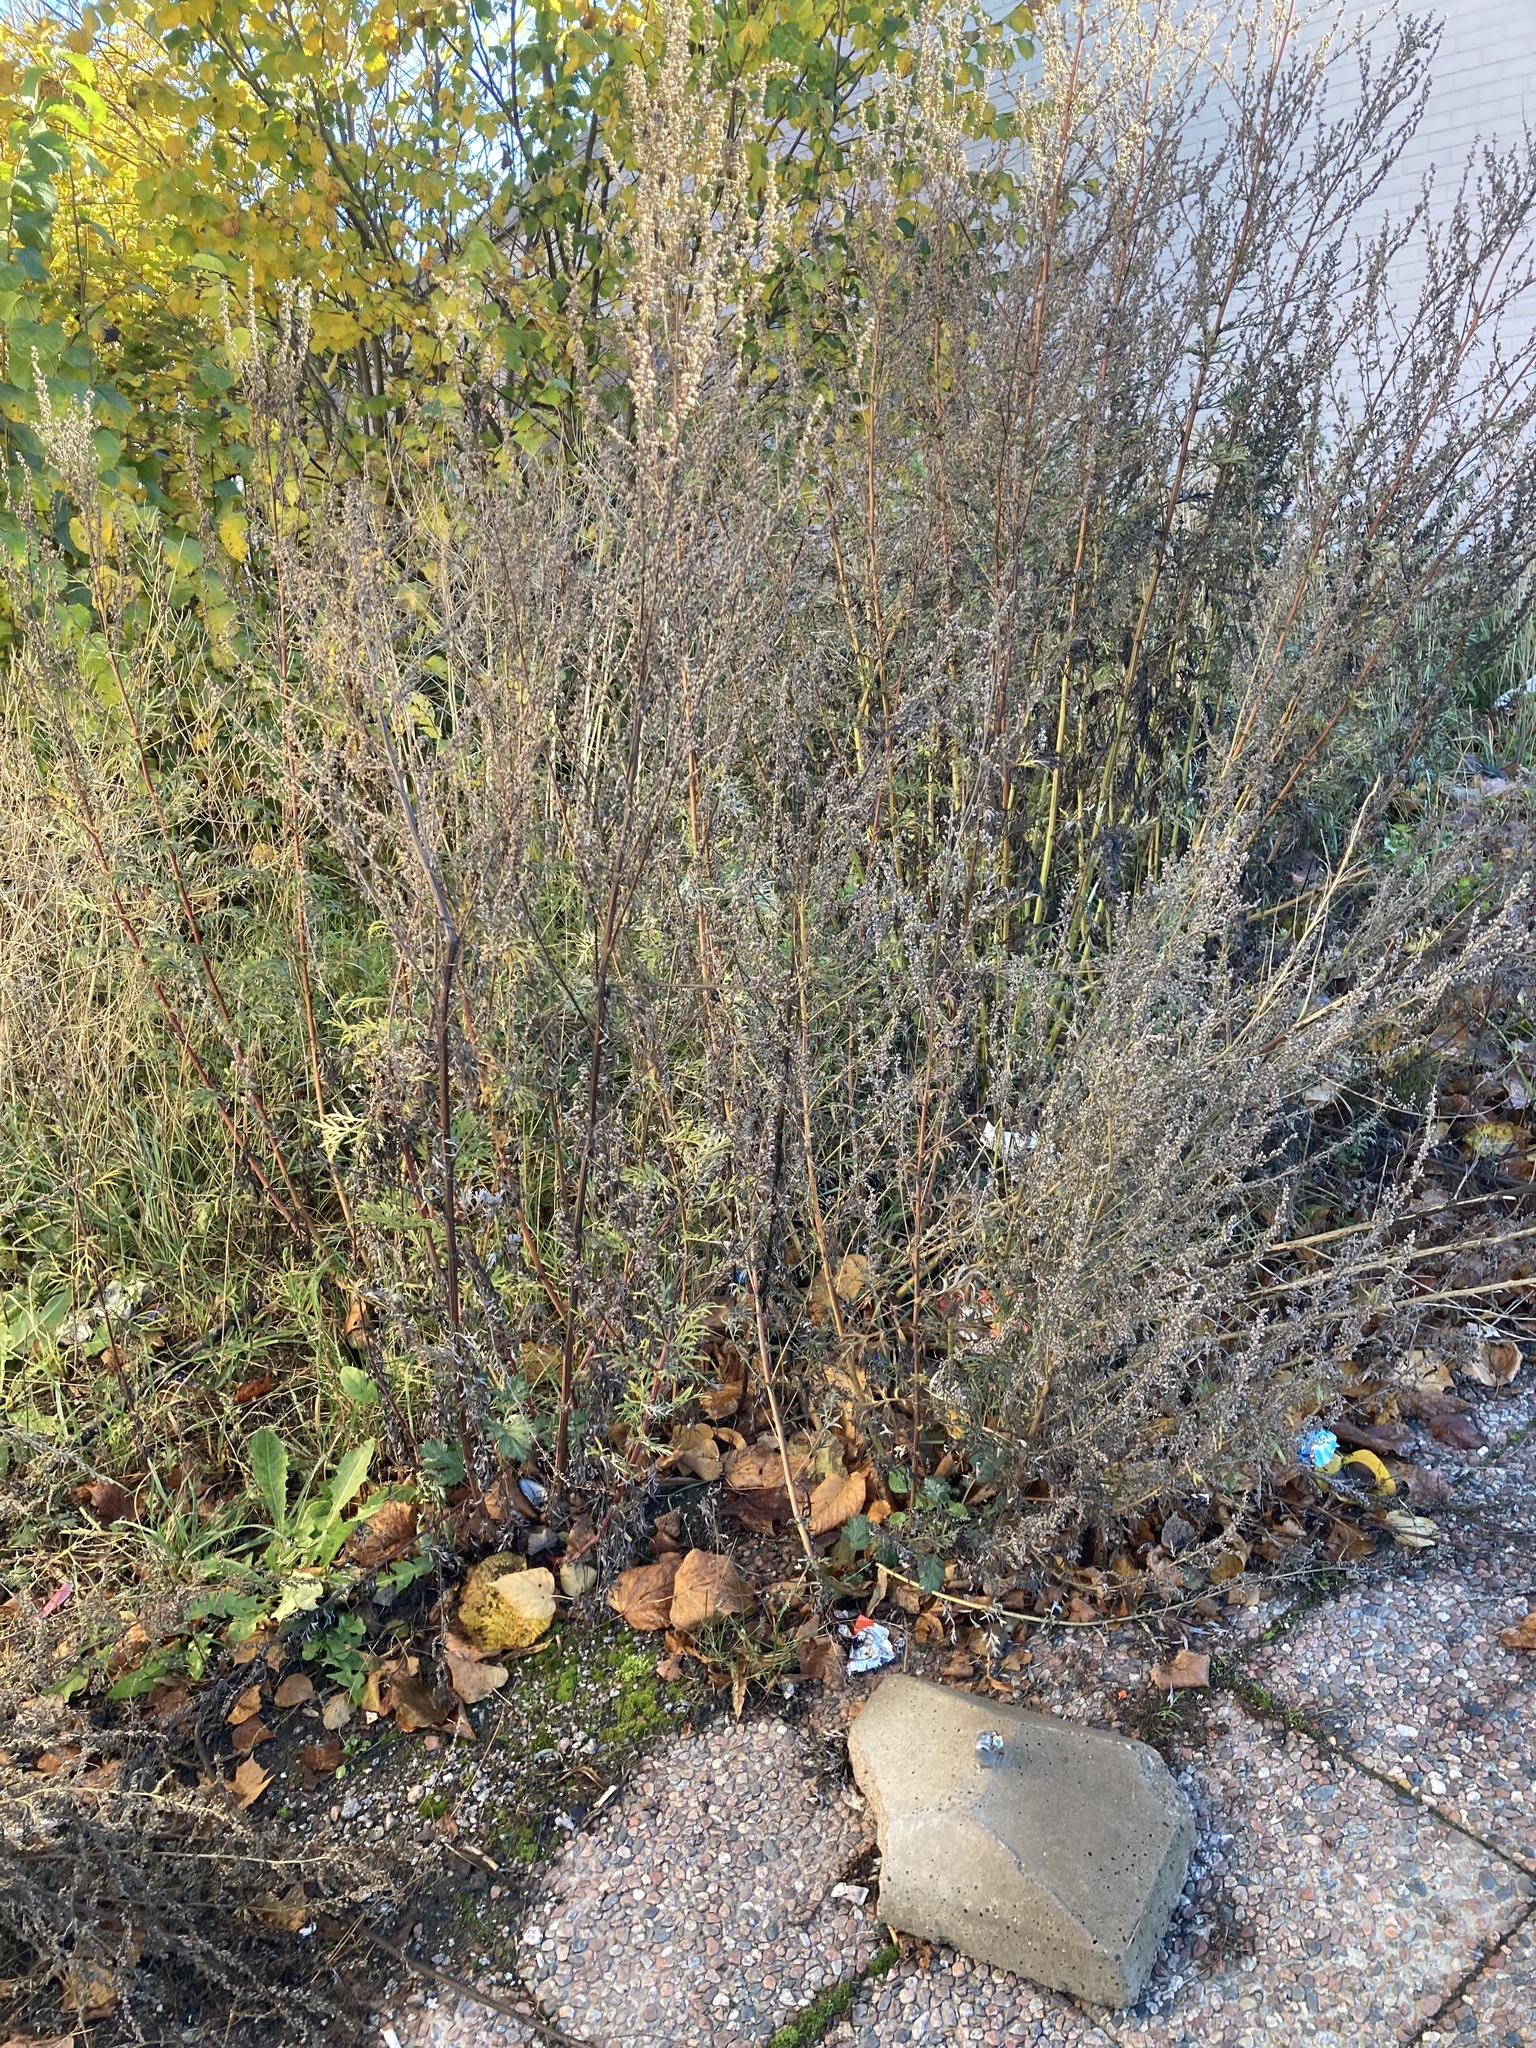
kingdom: Plantae
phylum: Tracheophyta
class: Magnoliopsida
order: Asterales
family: Asteraceae
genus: Artemisia
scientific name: Artemisia vulgaris
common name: Mugwort
